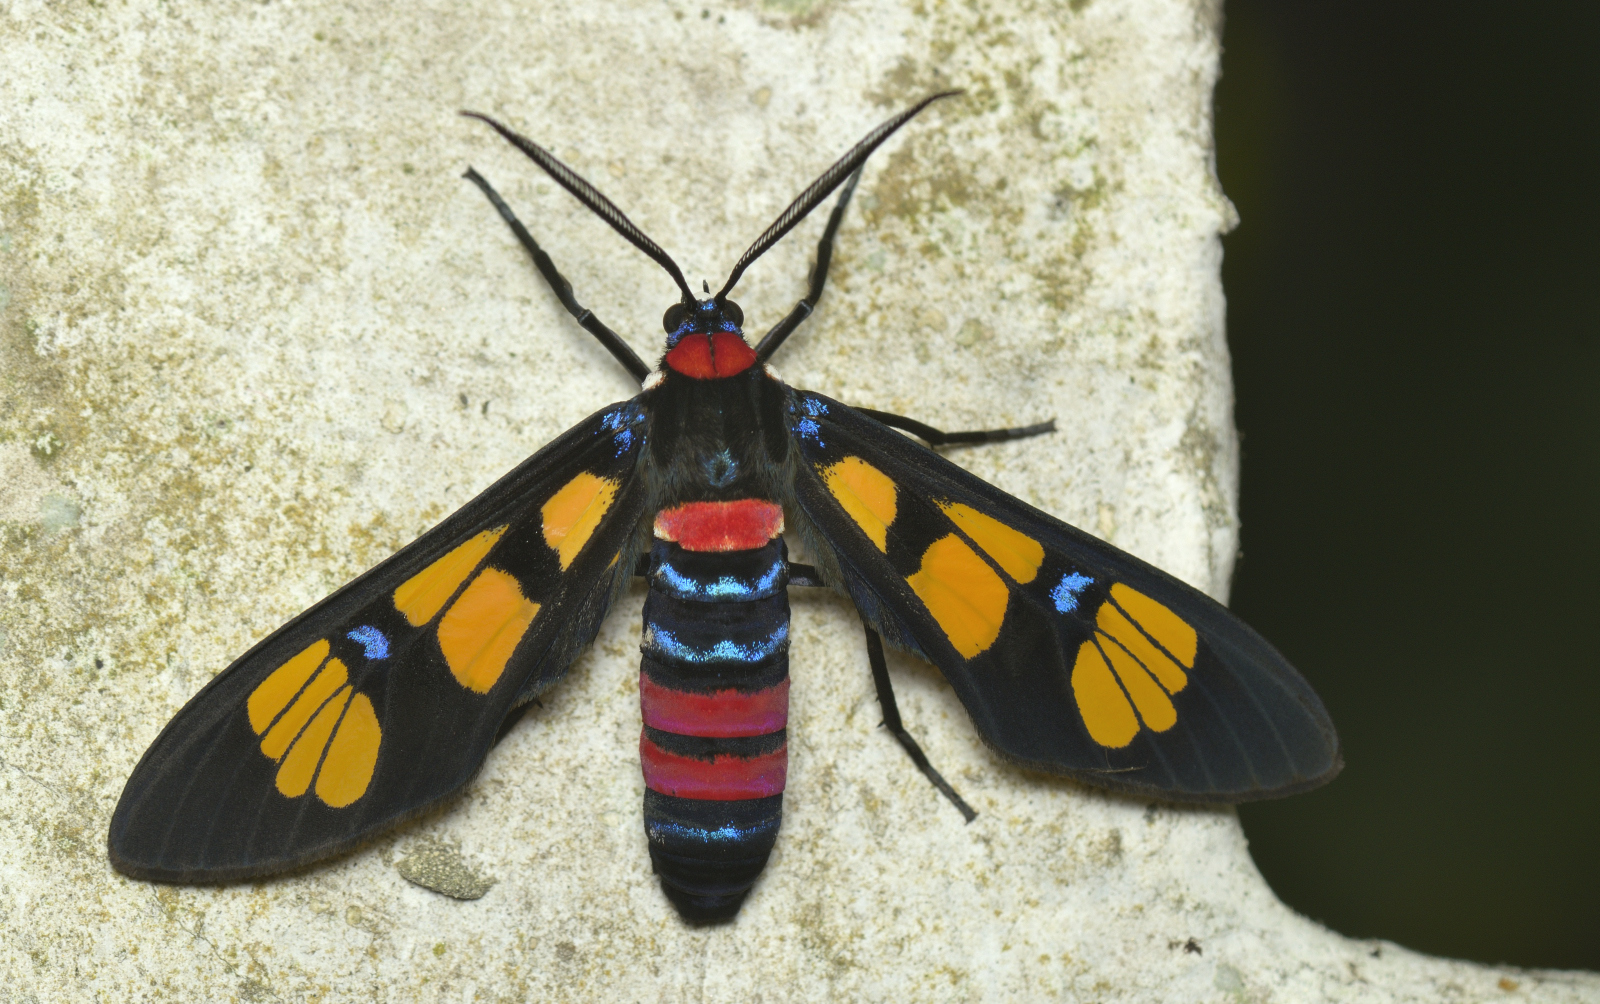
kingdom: Animalia
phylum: Arthropoda
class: Insecta
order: Lepidoptera
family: Erebidae
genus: Euchromia
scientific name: Euchromia polymena
